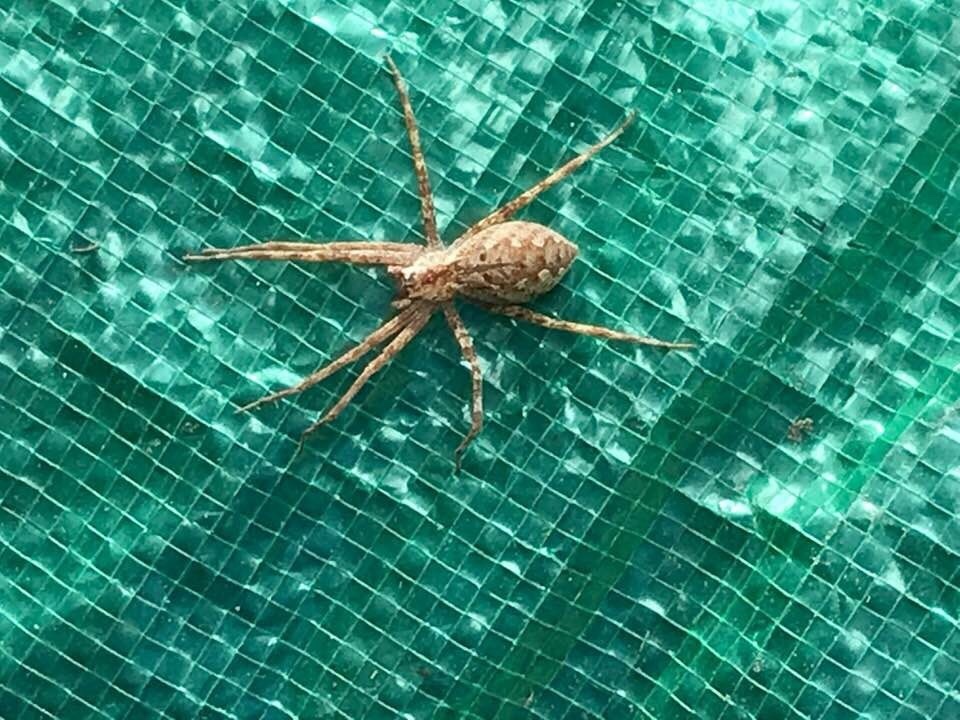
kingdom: Animalia
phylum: Arthropoda
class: Arachnida
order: Araneae
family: Pisauridae
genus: Pisaurina
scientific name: Pisaurina mira
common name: American nursery web spider
